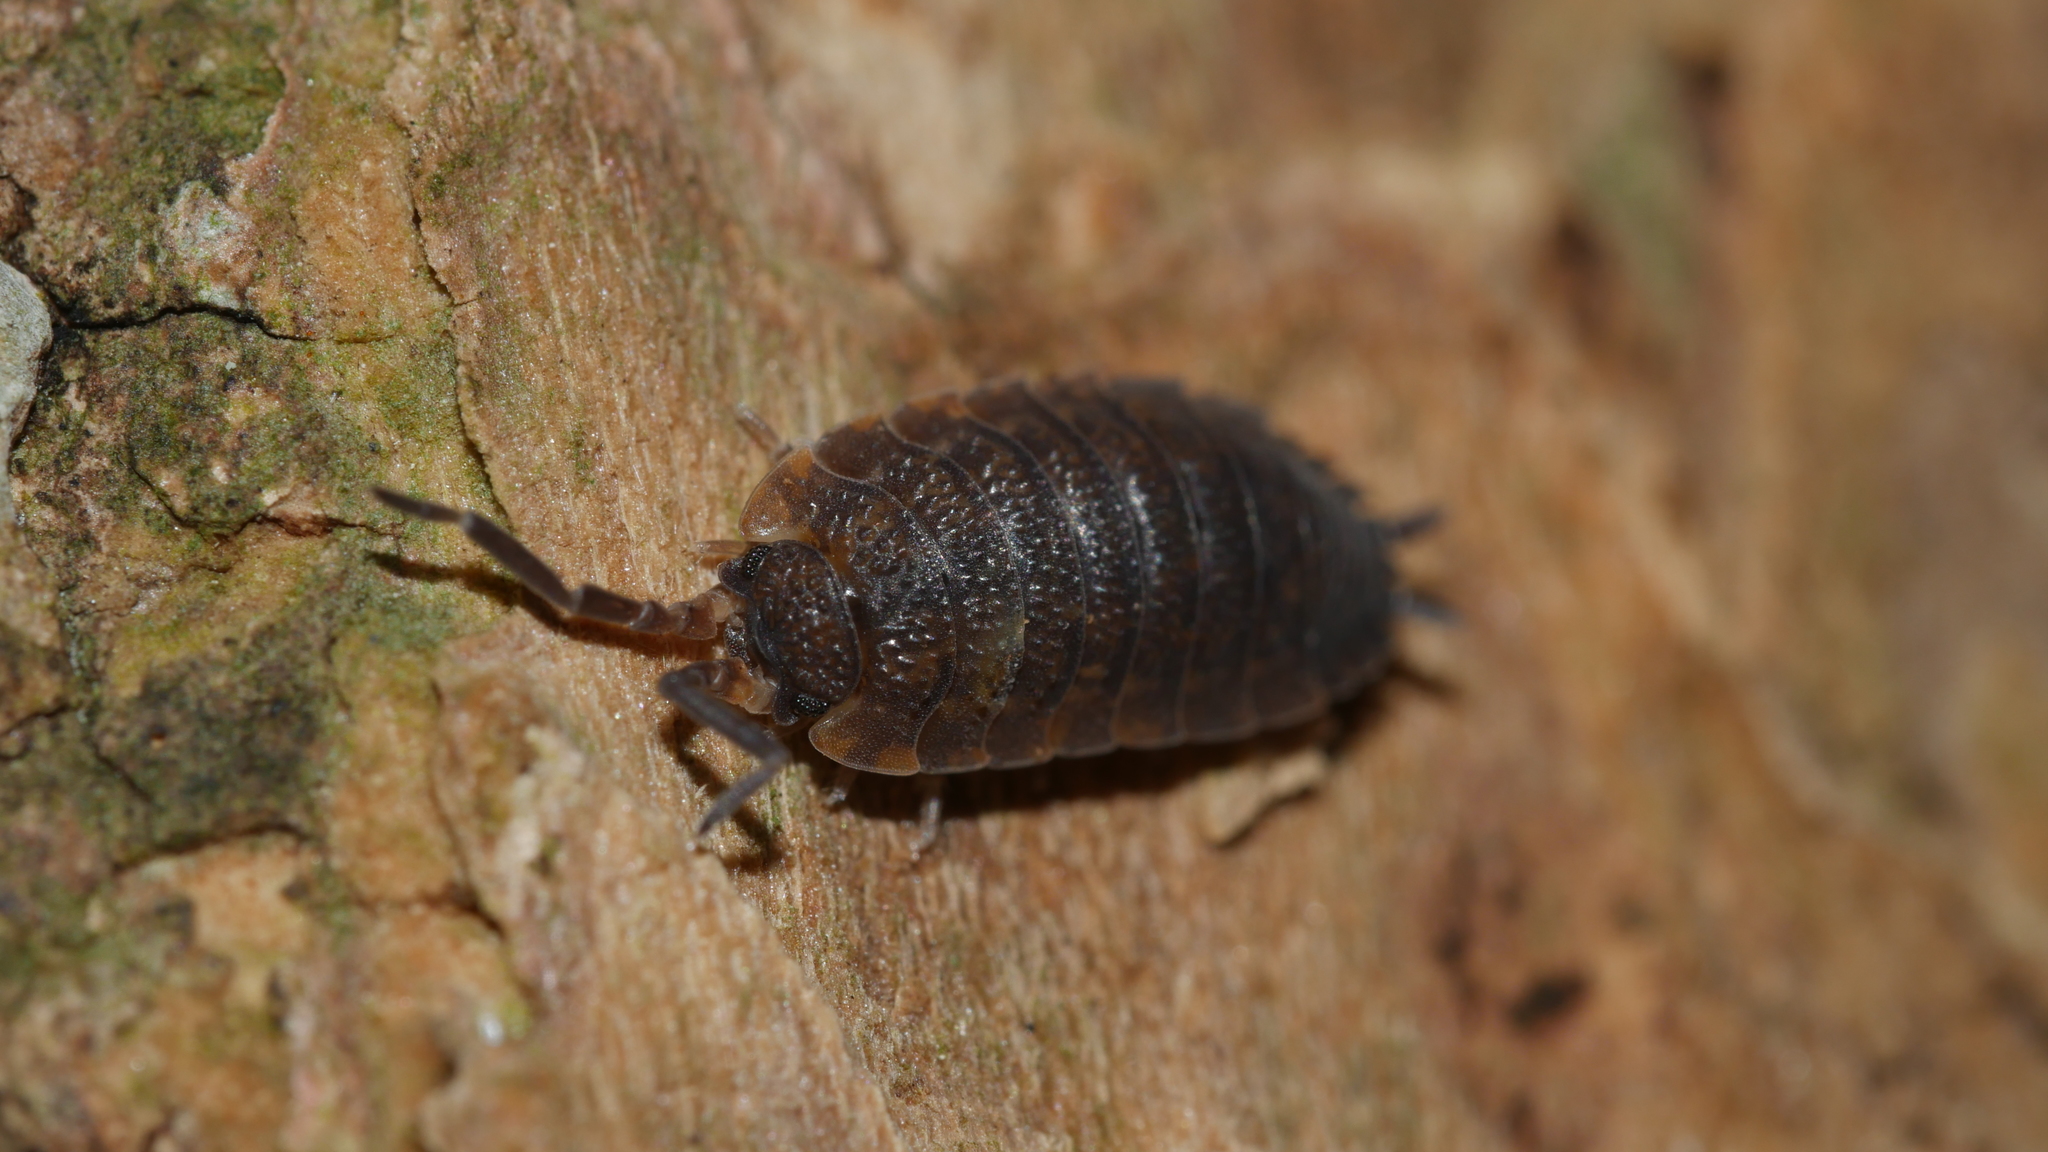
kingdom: Animalia
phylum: Arthropoda
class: Malacostraca
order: Isopoda
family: Porcellionidae
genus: Porcellio
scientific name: Porcellio scaber
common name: Common rough woodlouse
